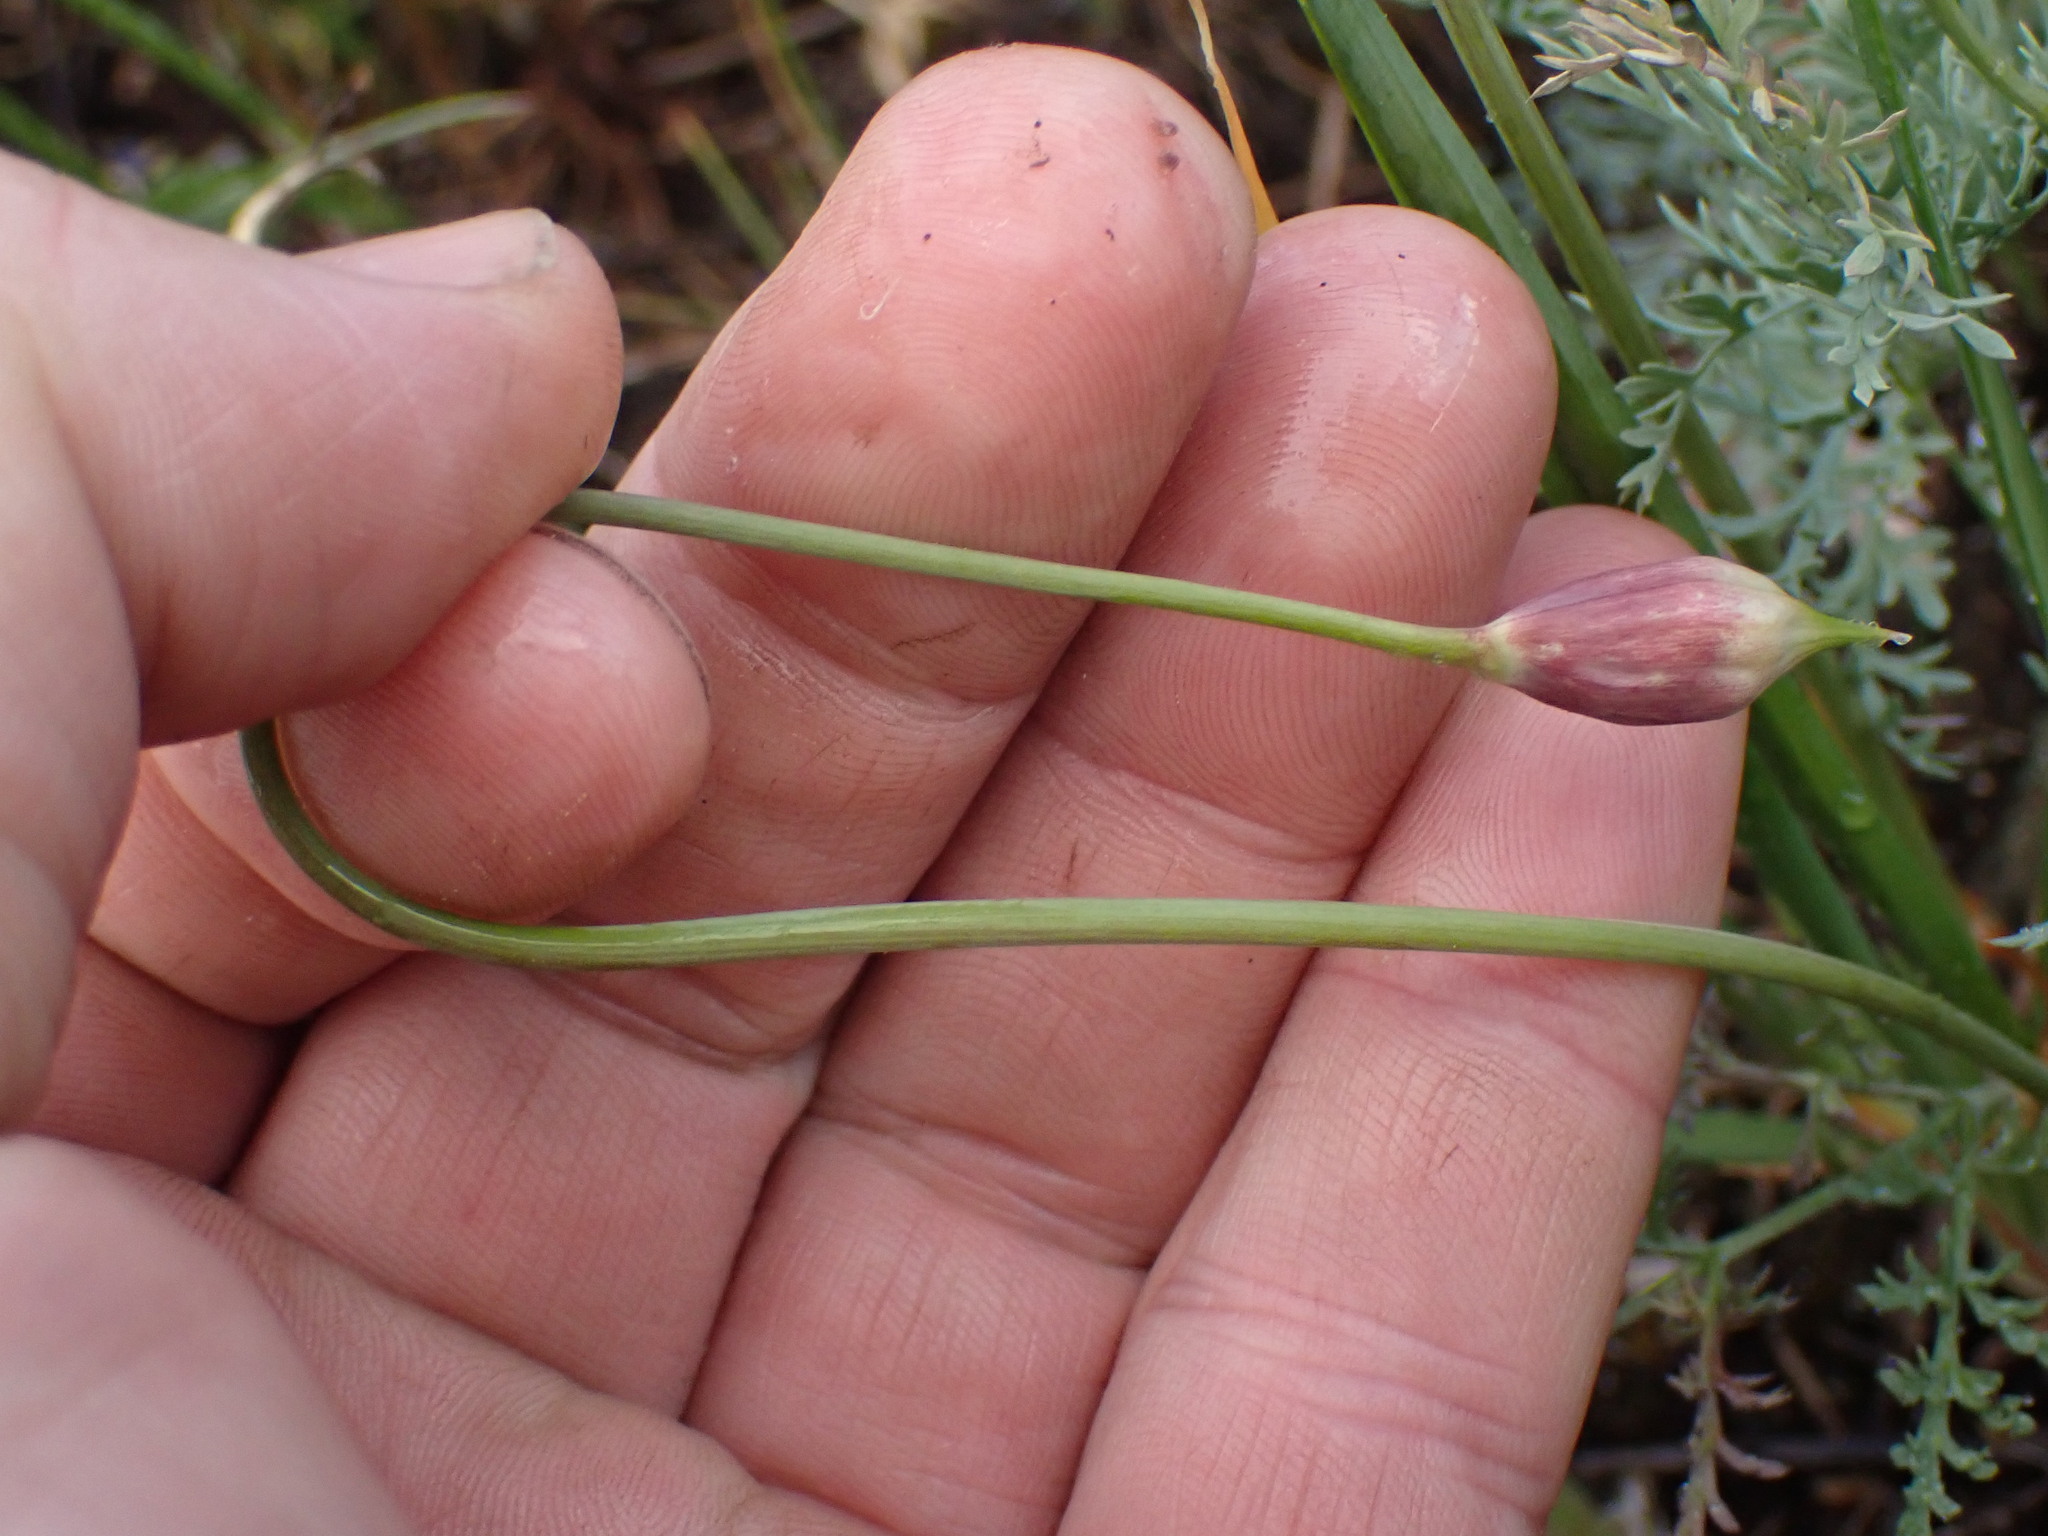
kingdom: Plantae
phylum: Tracheophyta
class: Liliopsida
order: Asparagales
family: Amaryllidaceae
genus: Allium
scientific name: Allium cernuum
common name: Nodding onion
